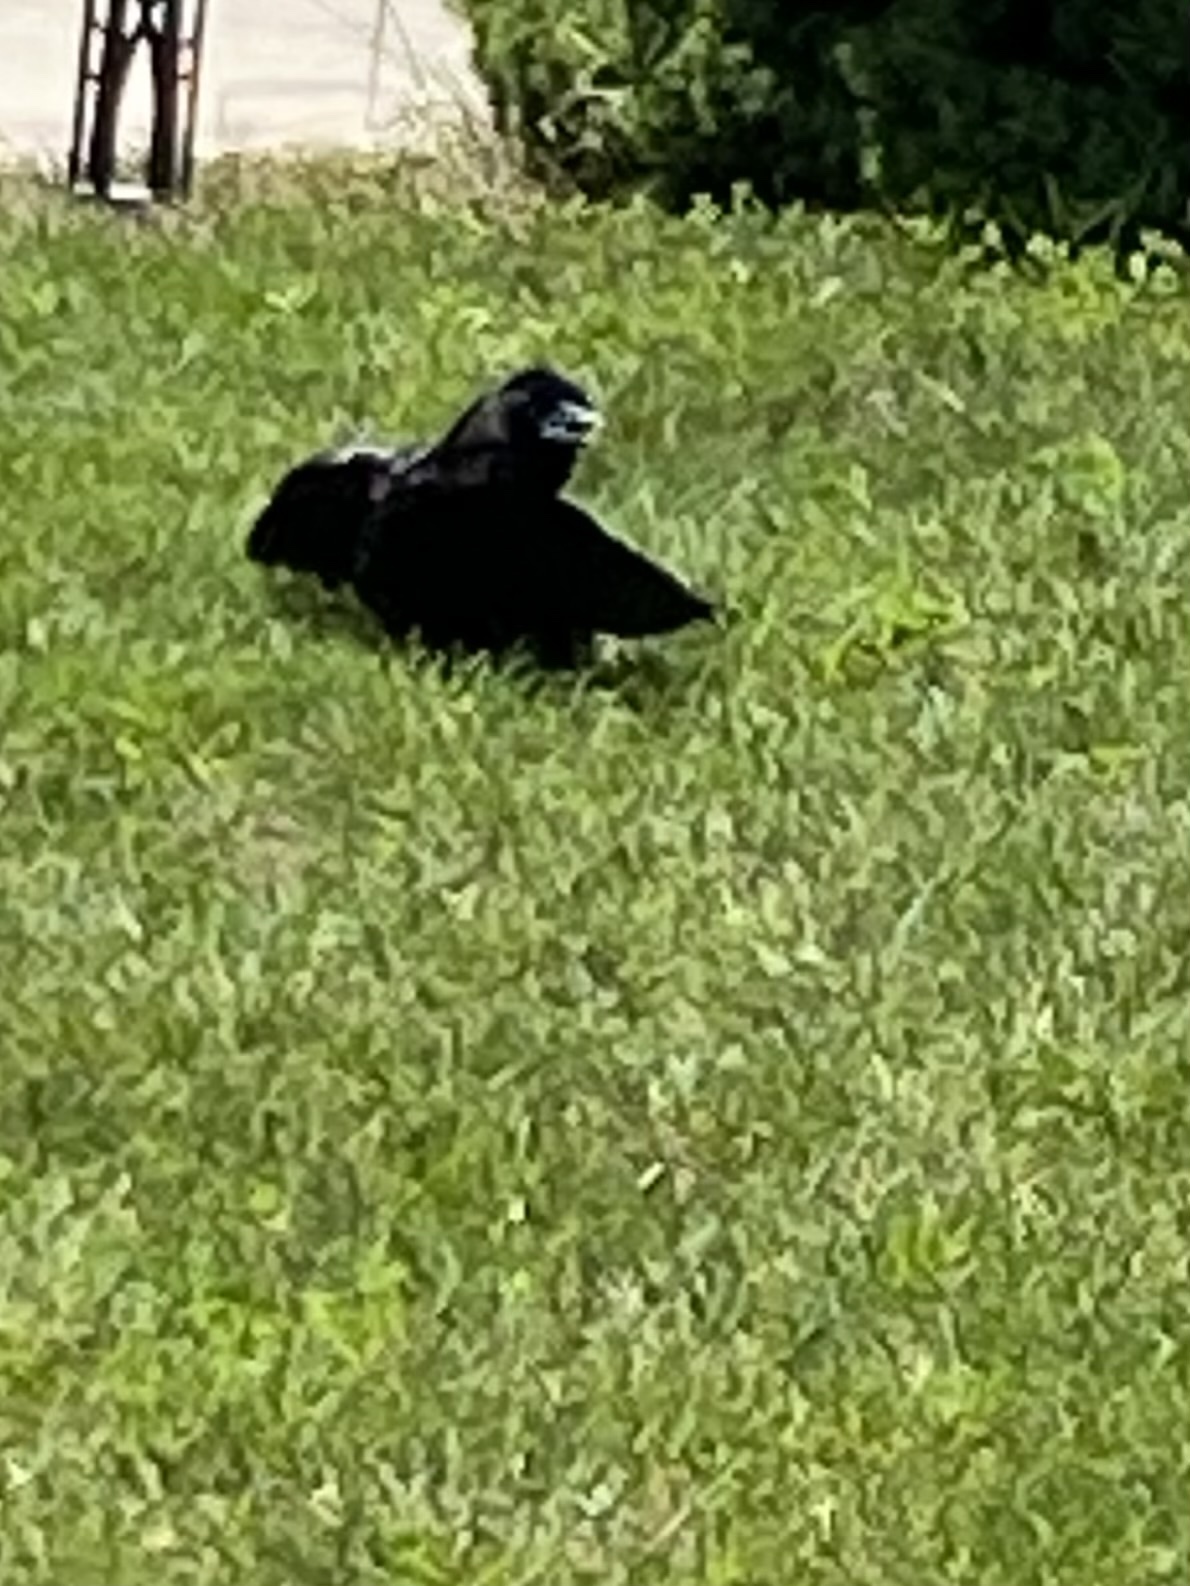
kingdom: Animalia
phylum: Chordata
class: Aves
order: Passeriformes
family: Corvidae
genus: Corvus
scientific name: Corvus brachyrhynchos
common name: American crow
